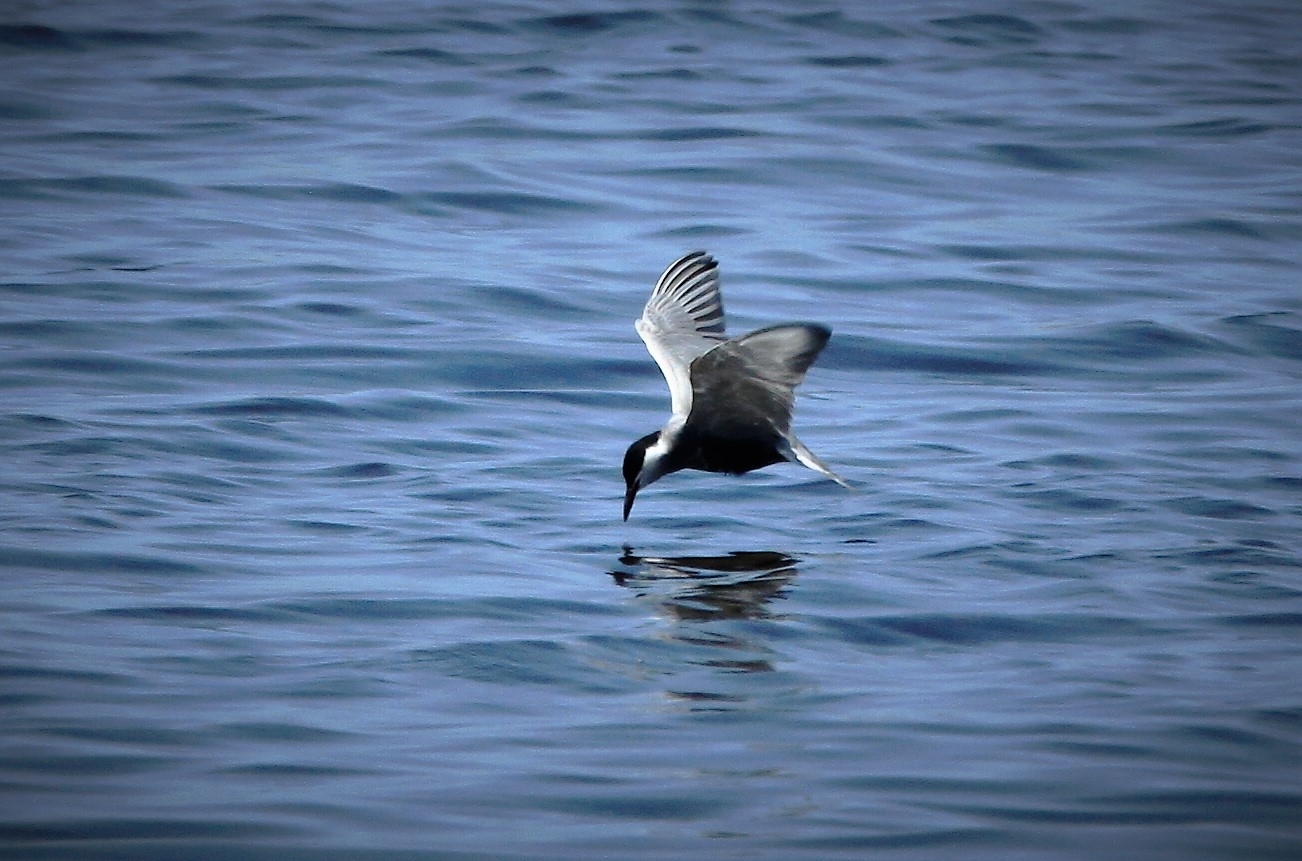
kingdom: Animalia
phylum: Chordata
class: Aves
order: Charadriiformes
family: Laridae
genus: Chlidonias
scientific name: Chlidonias hybrida
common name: Whiskered tern
